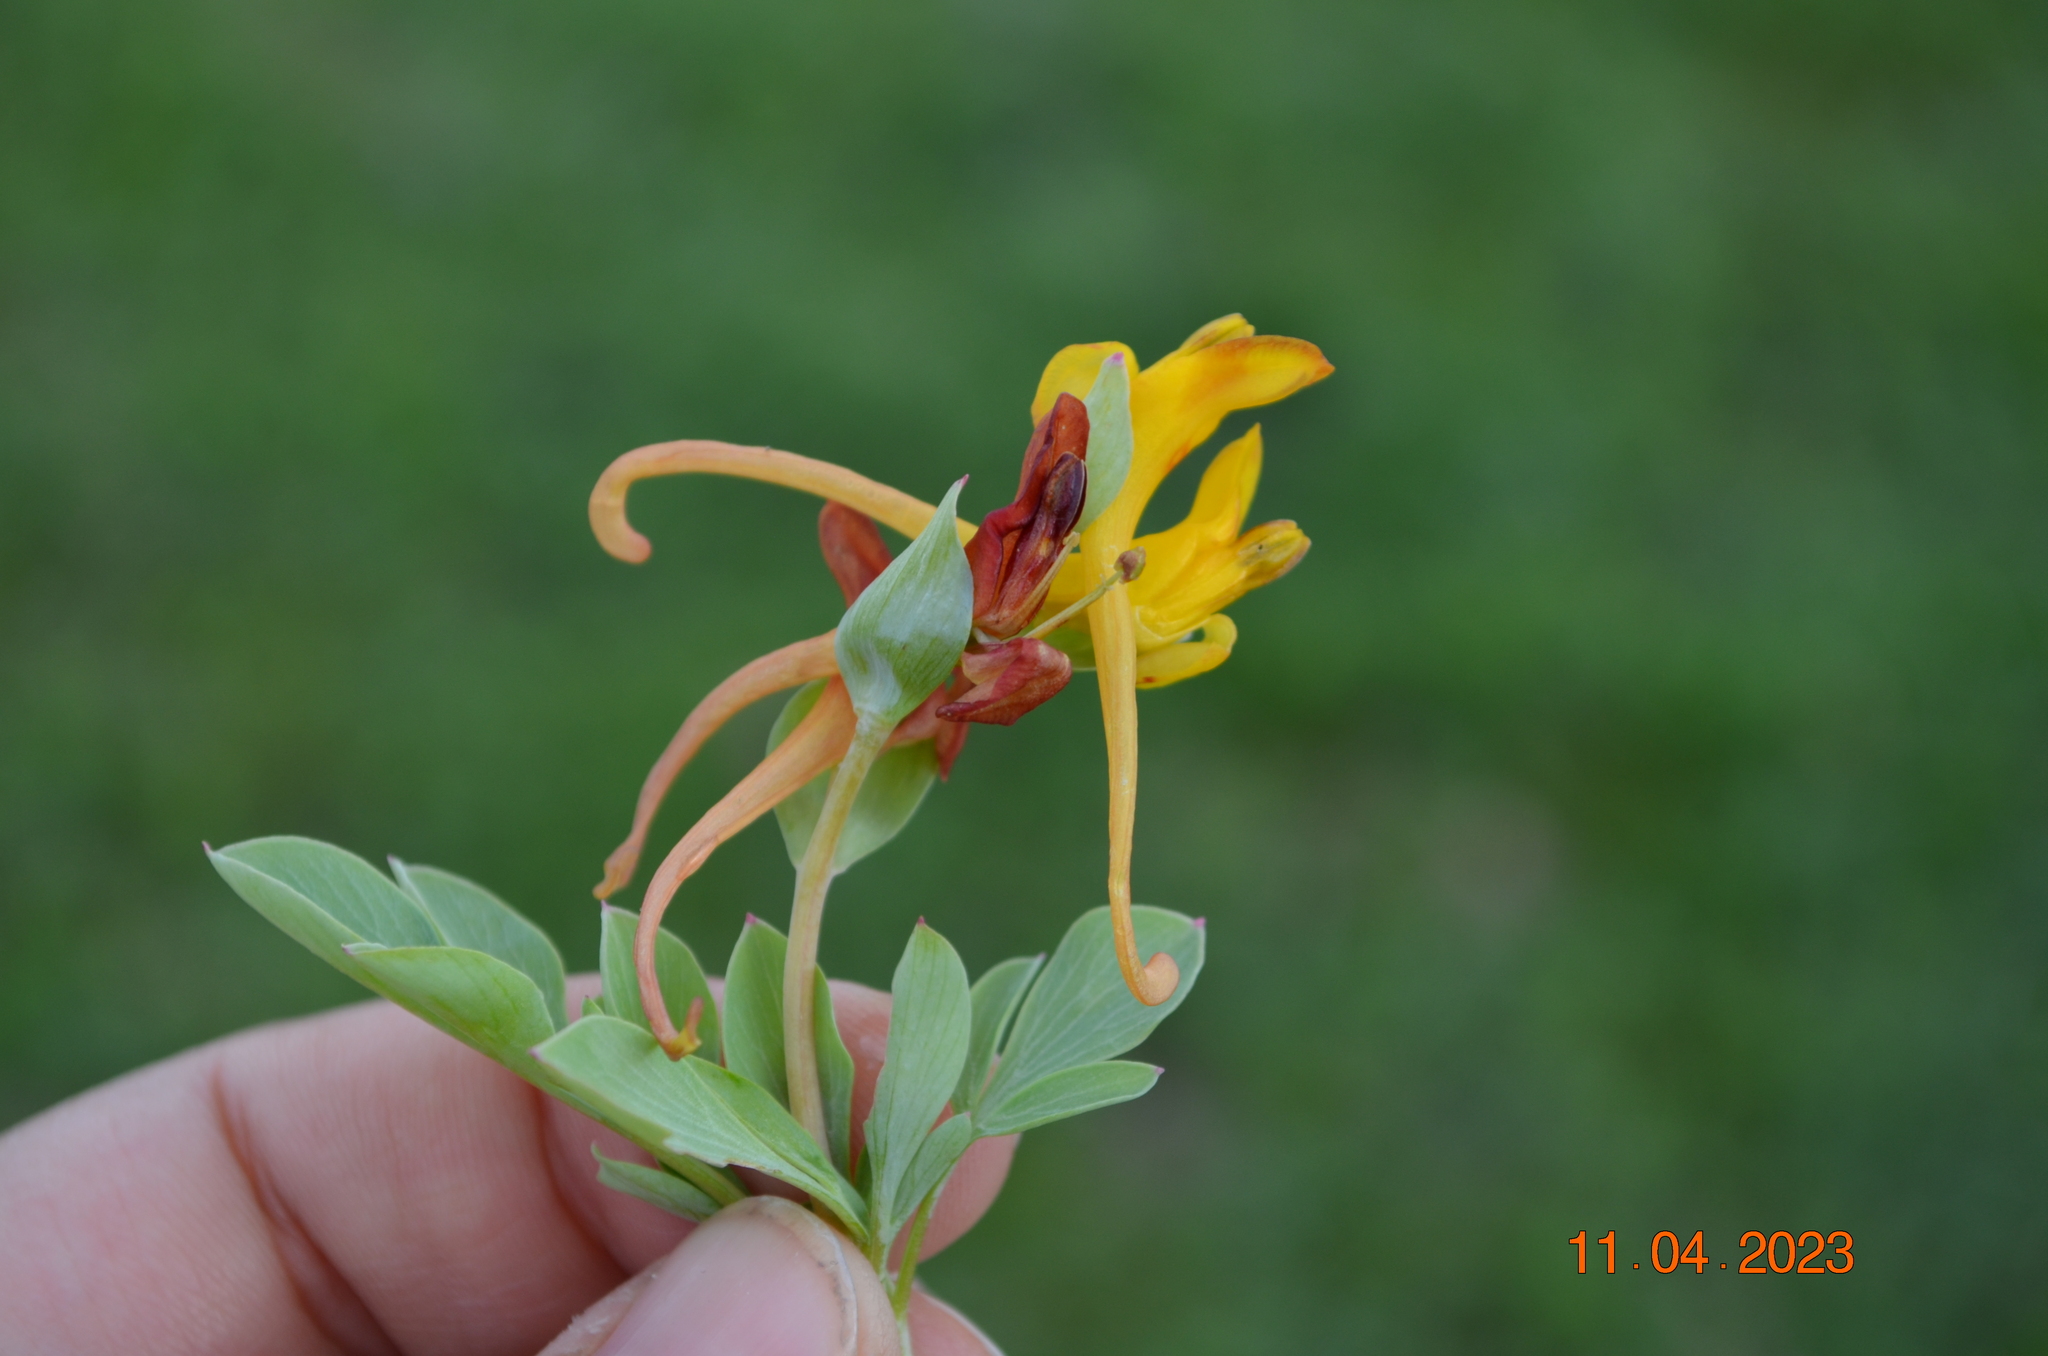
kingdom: Plantae
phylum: Tracheophyta
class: Magnoliopsida
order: Ranunculales
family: Papaveraceae
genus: Corydalis
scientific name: Corydalis sewerzowii
